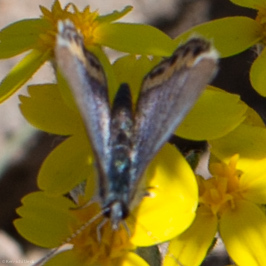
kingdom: Animalia
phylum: Arthropoda
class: Insecta
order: Lepidoptera
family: Lycaenidae
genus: Icaricia
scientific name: Icaricia acmon
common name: Acmon blue
